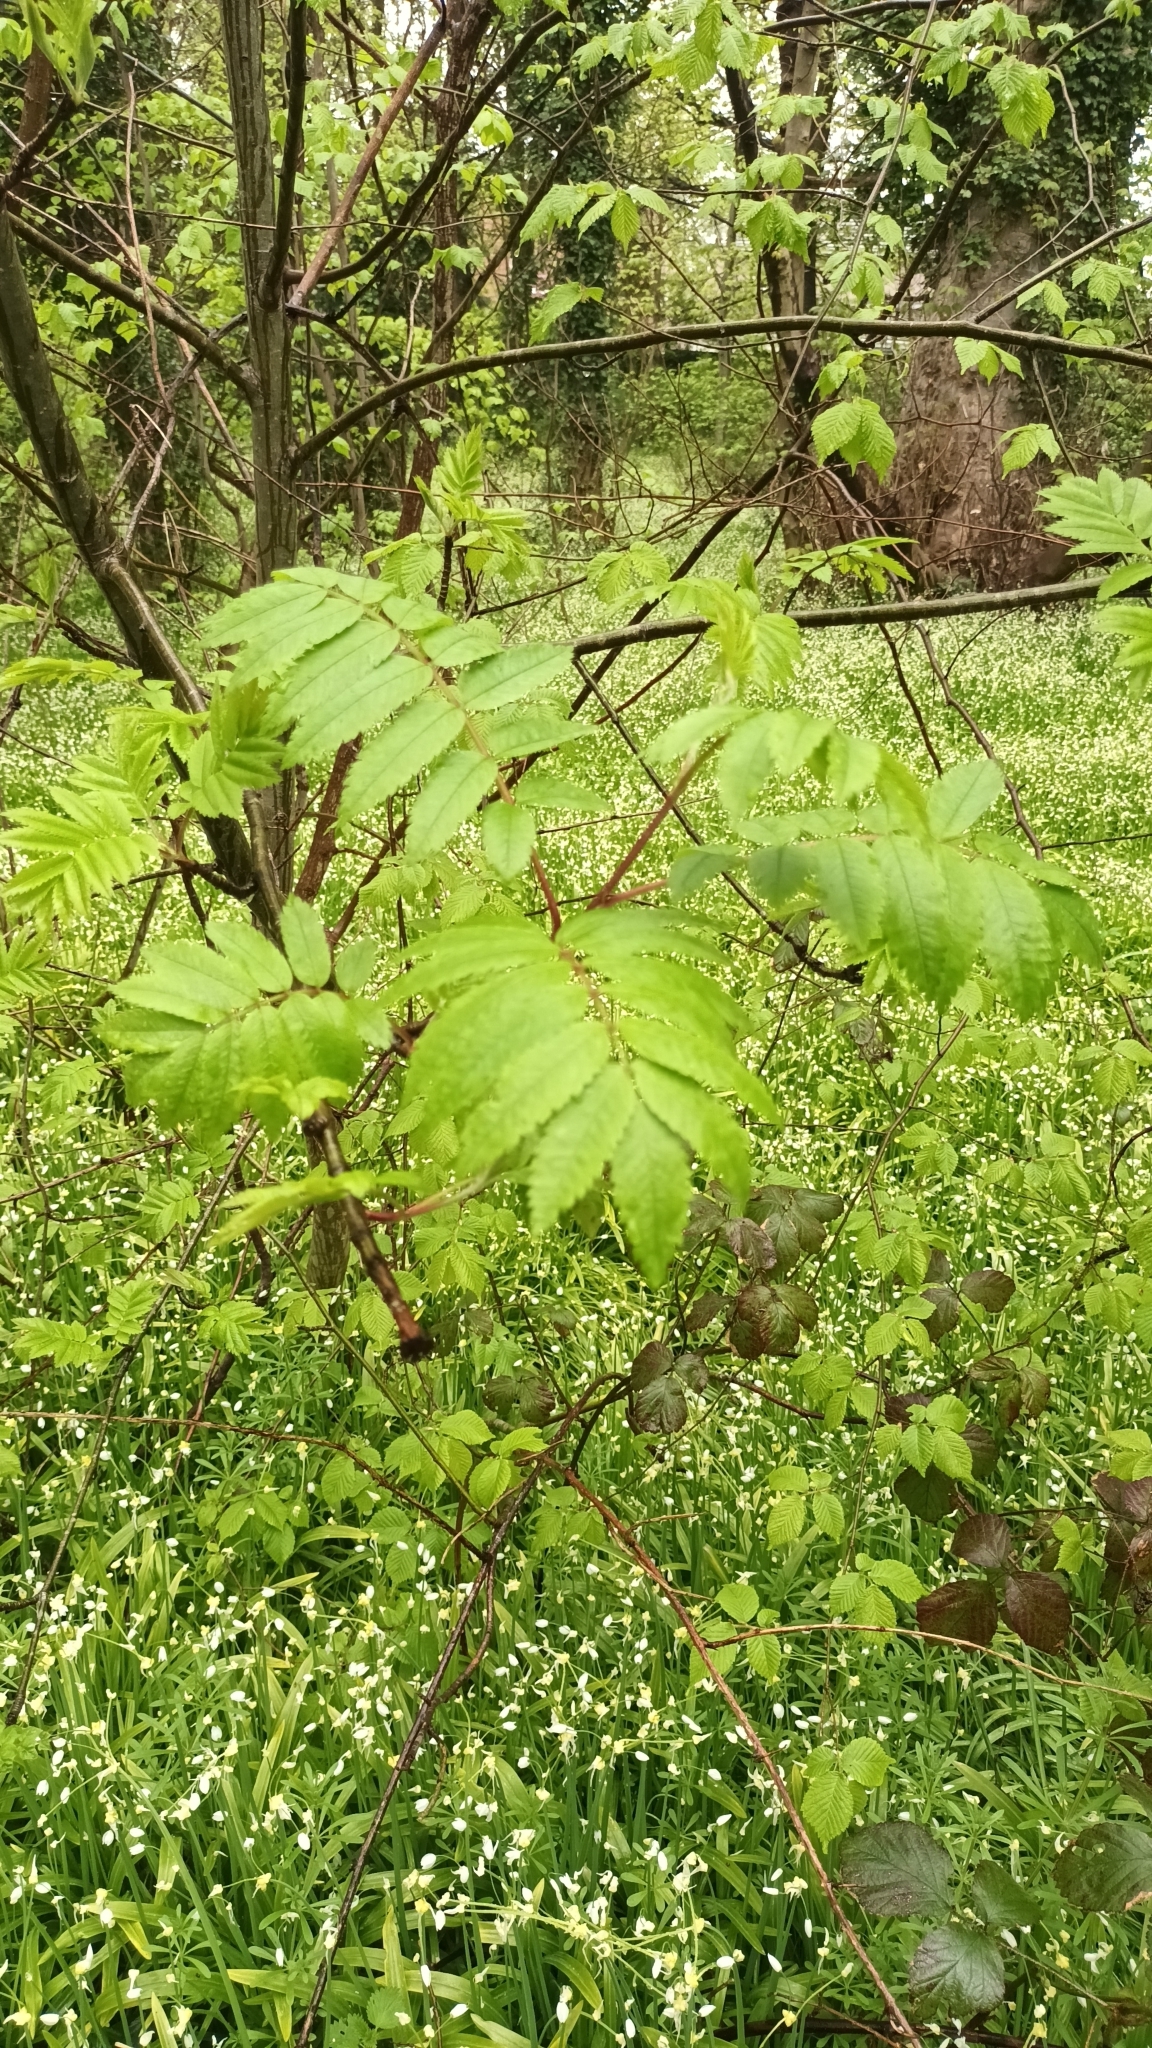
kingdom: Plantae
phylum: Tracheophyta
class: Magnoliopsida
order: Rosales
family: Rosaceae
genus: Sorbus
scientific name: Sorbus aucuparia
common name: Rowan
